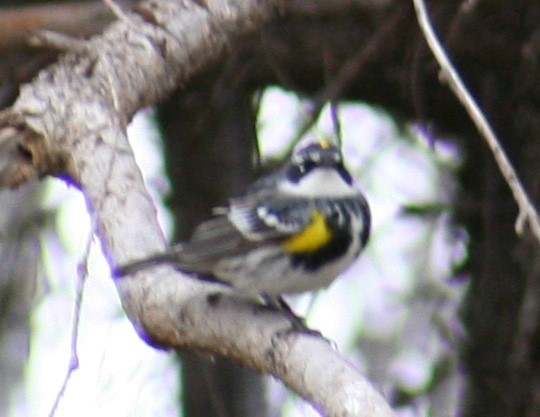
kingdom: Animalia
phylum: Chordata
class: Aves
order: Passeriformes
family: Parulidae
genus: Setophaga
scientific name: Setophaga coronata
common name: Myrtle warbler
